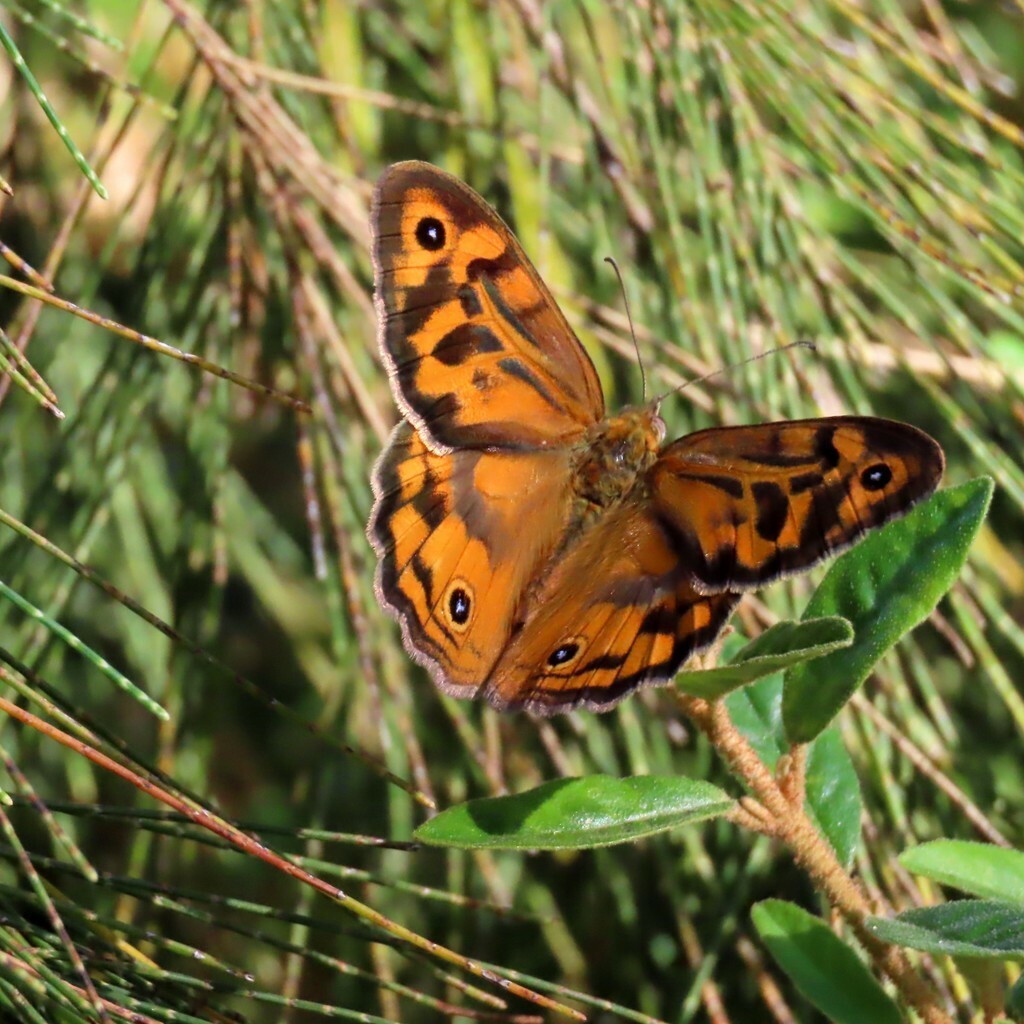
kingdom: Animalia
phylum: Arthropoda
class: Insecta
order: Lepidoptera
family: Nymphalidae
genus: Heteronympha
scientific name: Heteronympha merope
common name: Common brown
